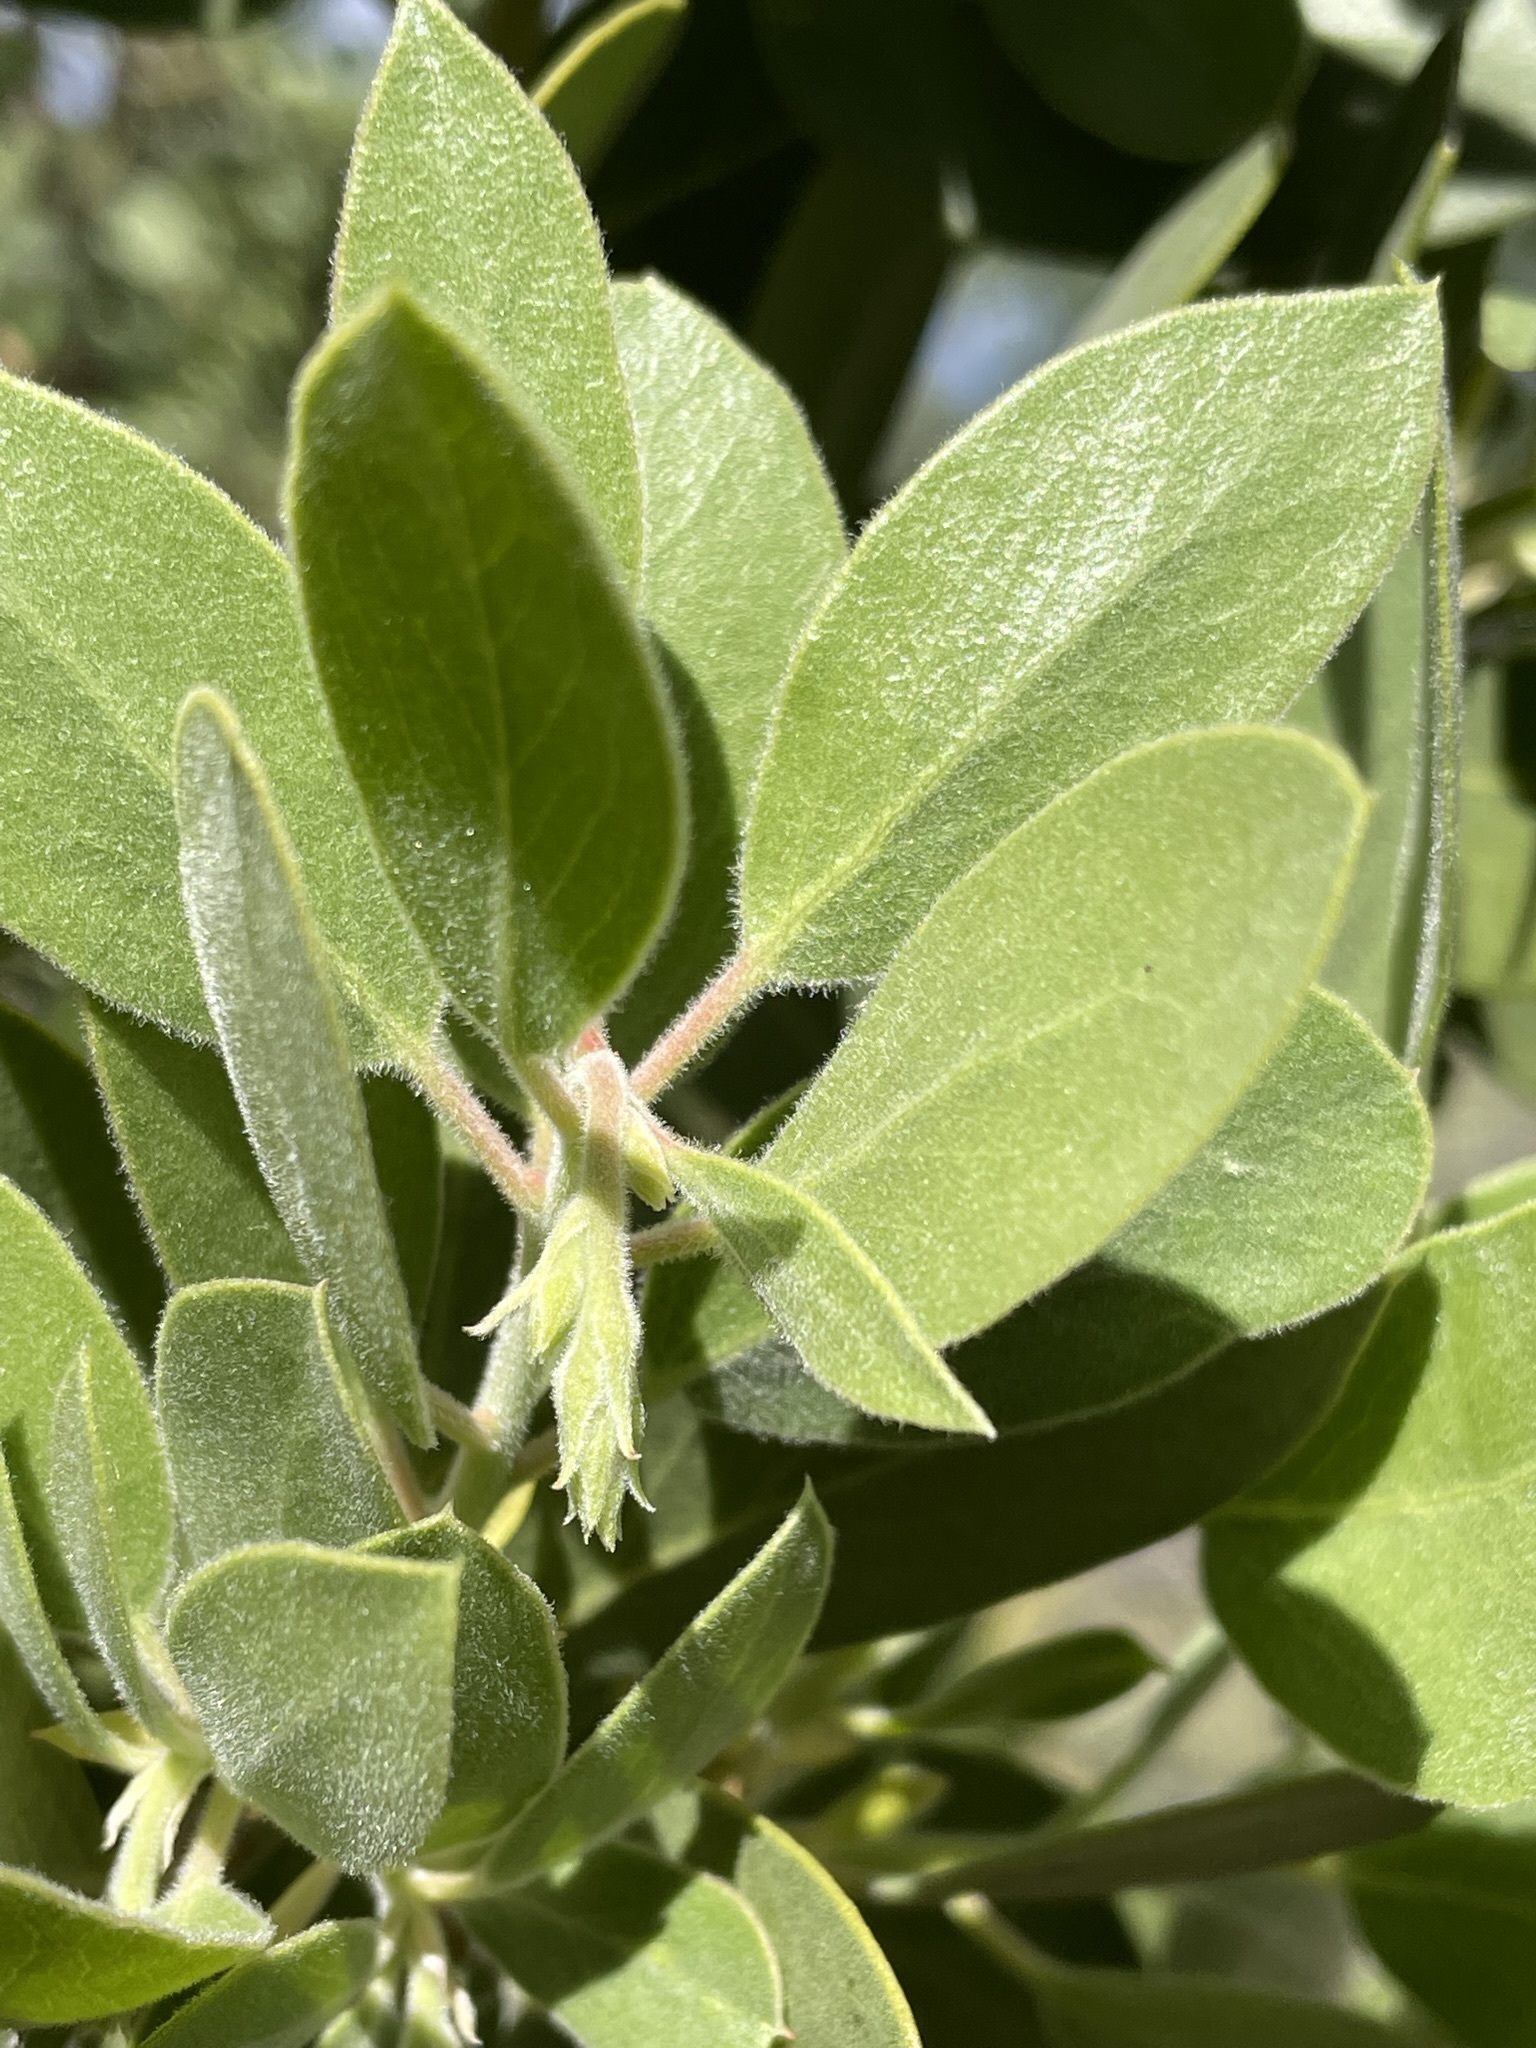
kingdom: Plantae
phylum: Tracheophyta
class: Magnoliopsida
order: Ericales
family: Ericaceae
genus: Arctostaphylos
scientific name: Arctostaphylos manzanita
